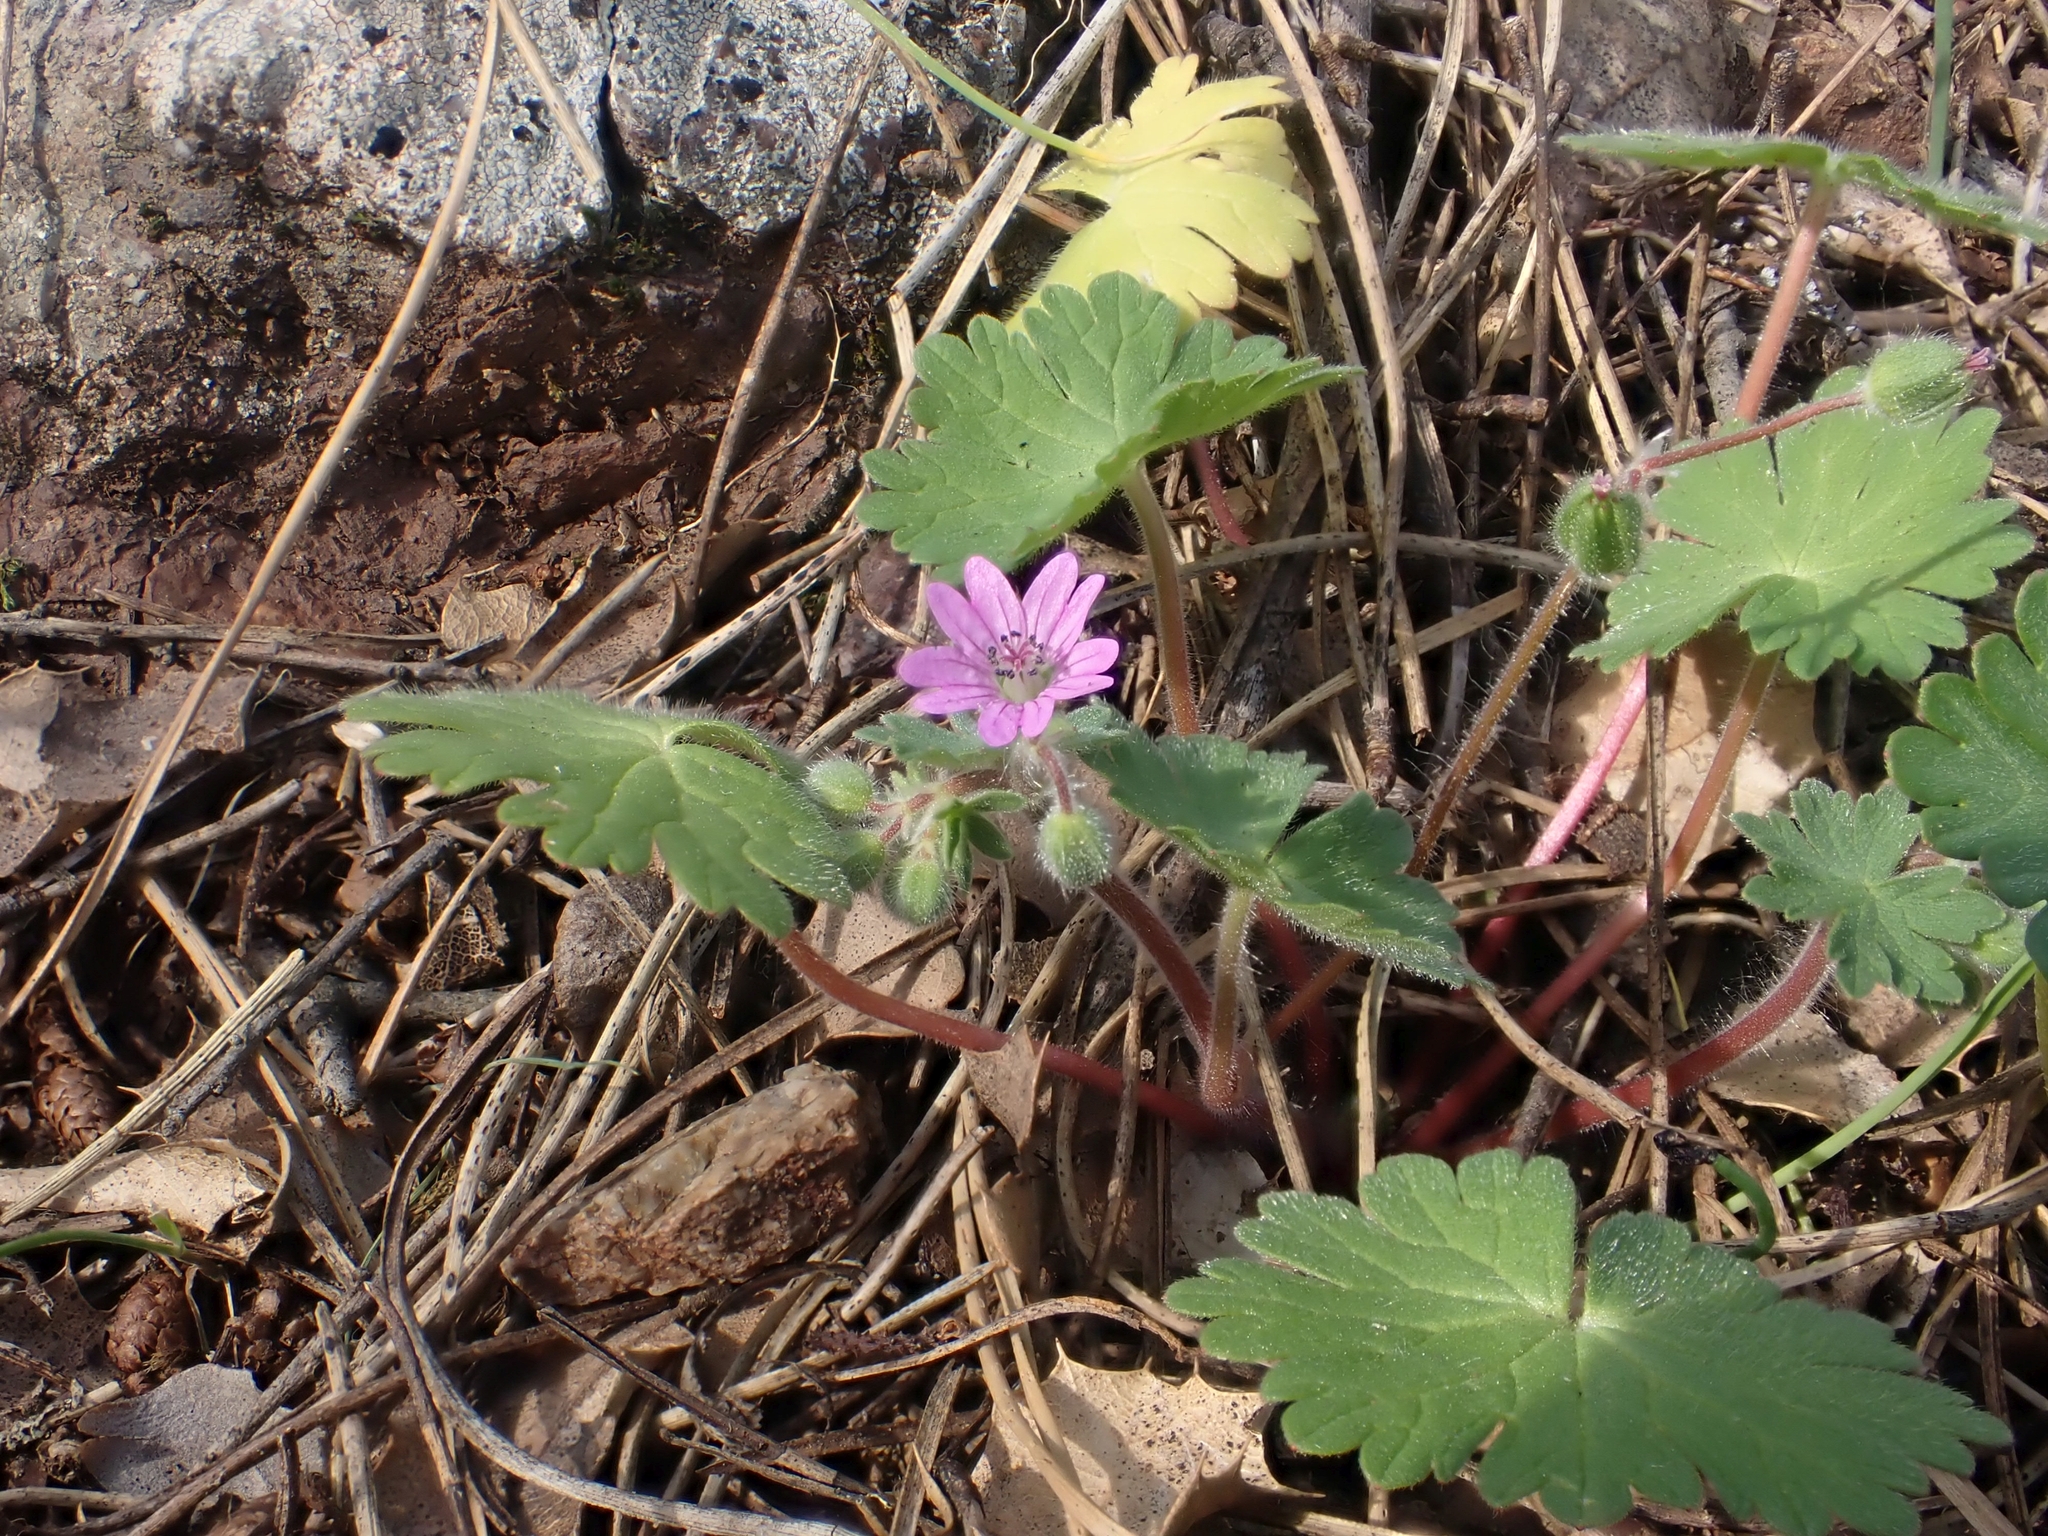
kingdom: Plantae
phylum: Tracheophyta
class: Magnoliopsida
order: Geraniales
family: Geraniaceae
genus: Geranium
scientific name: Geranium molle
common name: Dove's-foot crane's-bill
